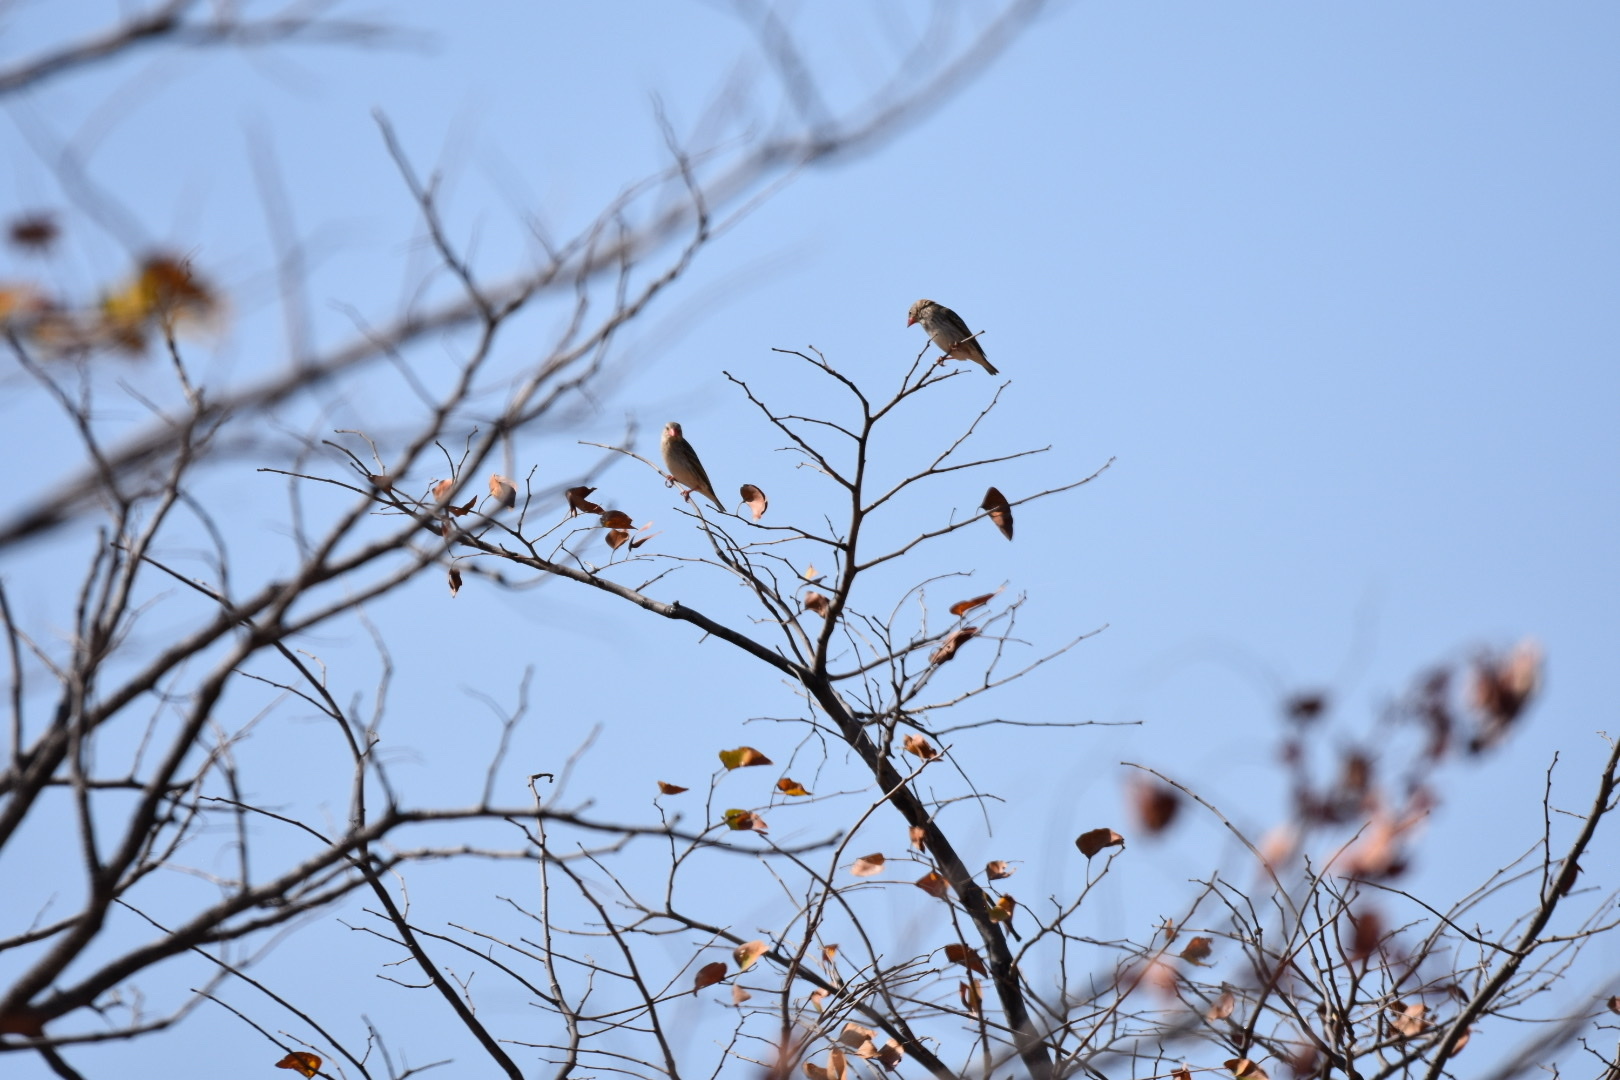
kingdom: Animalia
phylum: Chordata
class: Aves
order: Passeriformes
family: Ploceidae
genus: Quelea
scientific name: Quelea quelea
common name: Red-billed quelea
